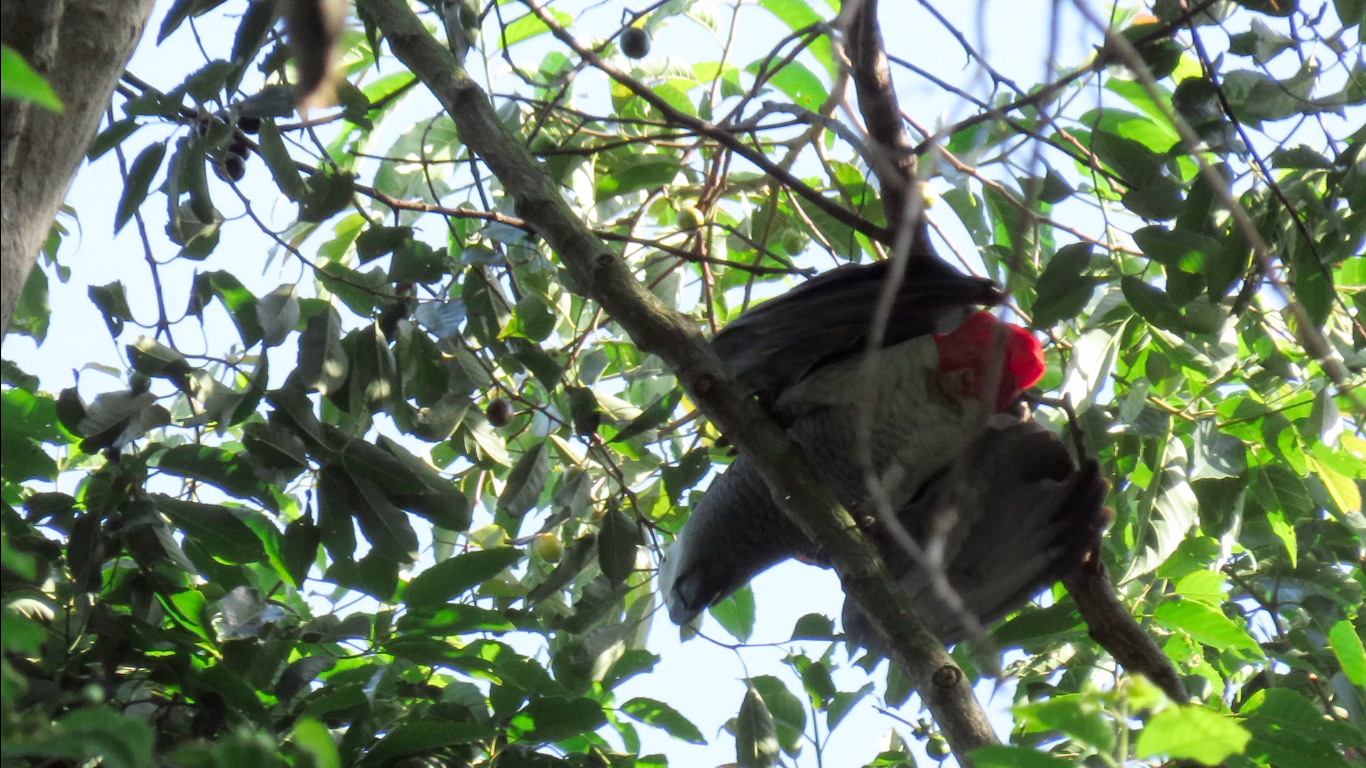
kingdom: Animalia
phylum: Chordata
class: Aves
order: Psittaciformes
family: Psittacidae
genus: Psittacus
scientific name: Psittacus erithacus
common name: Grey parrot
